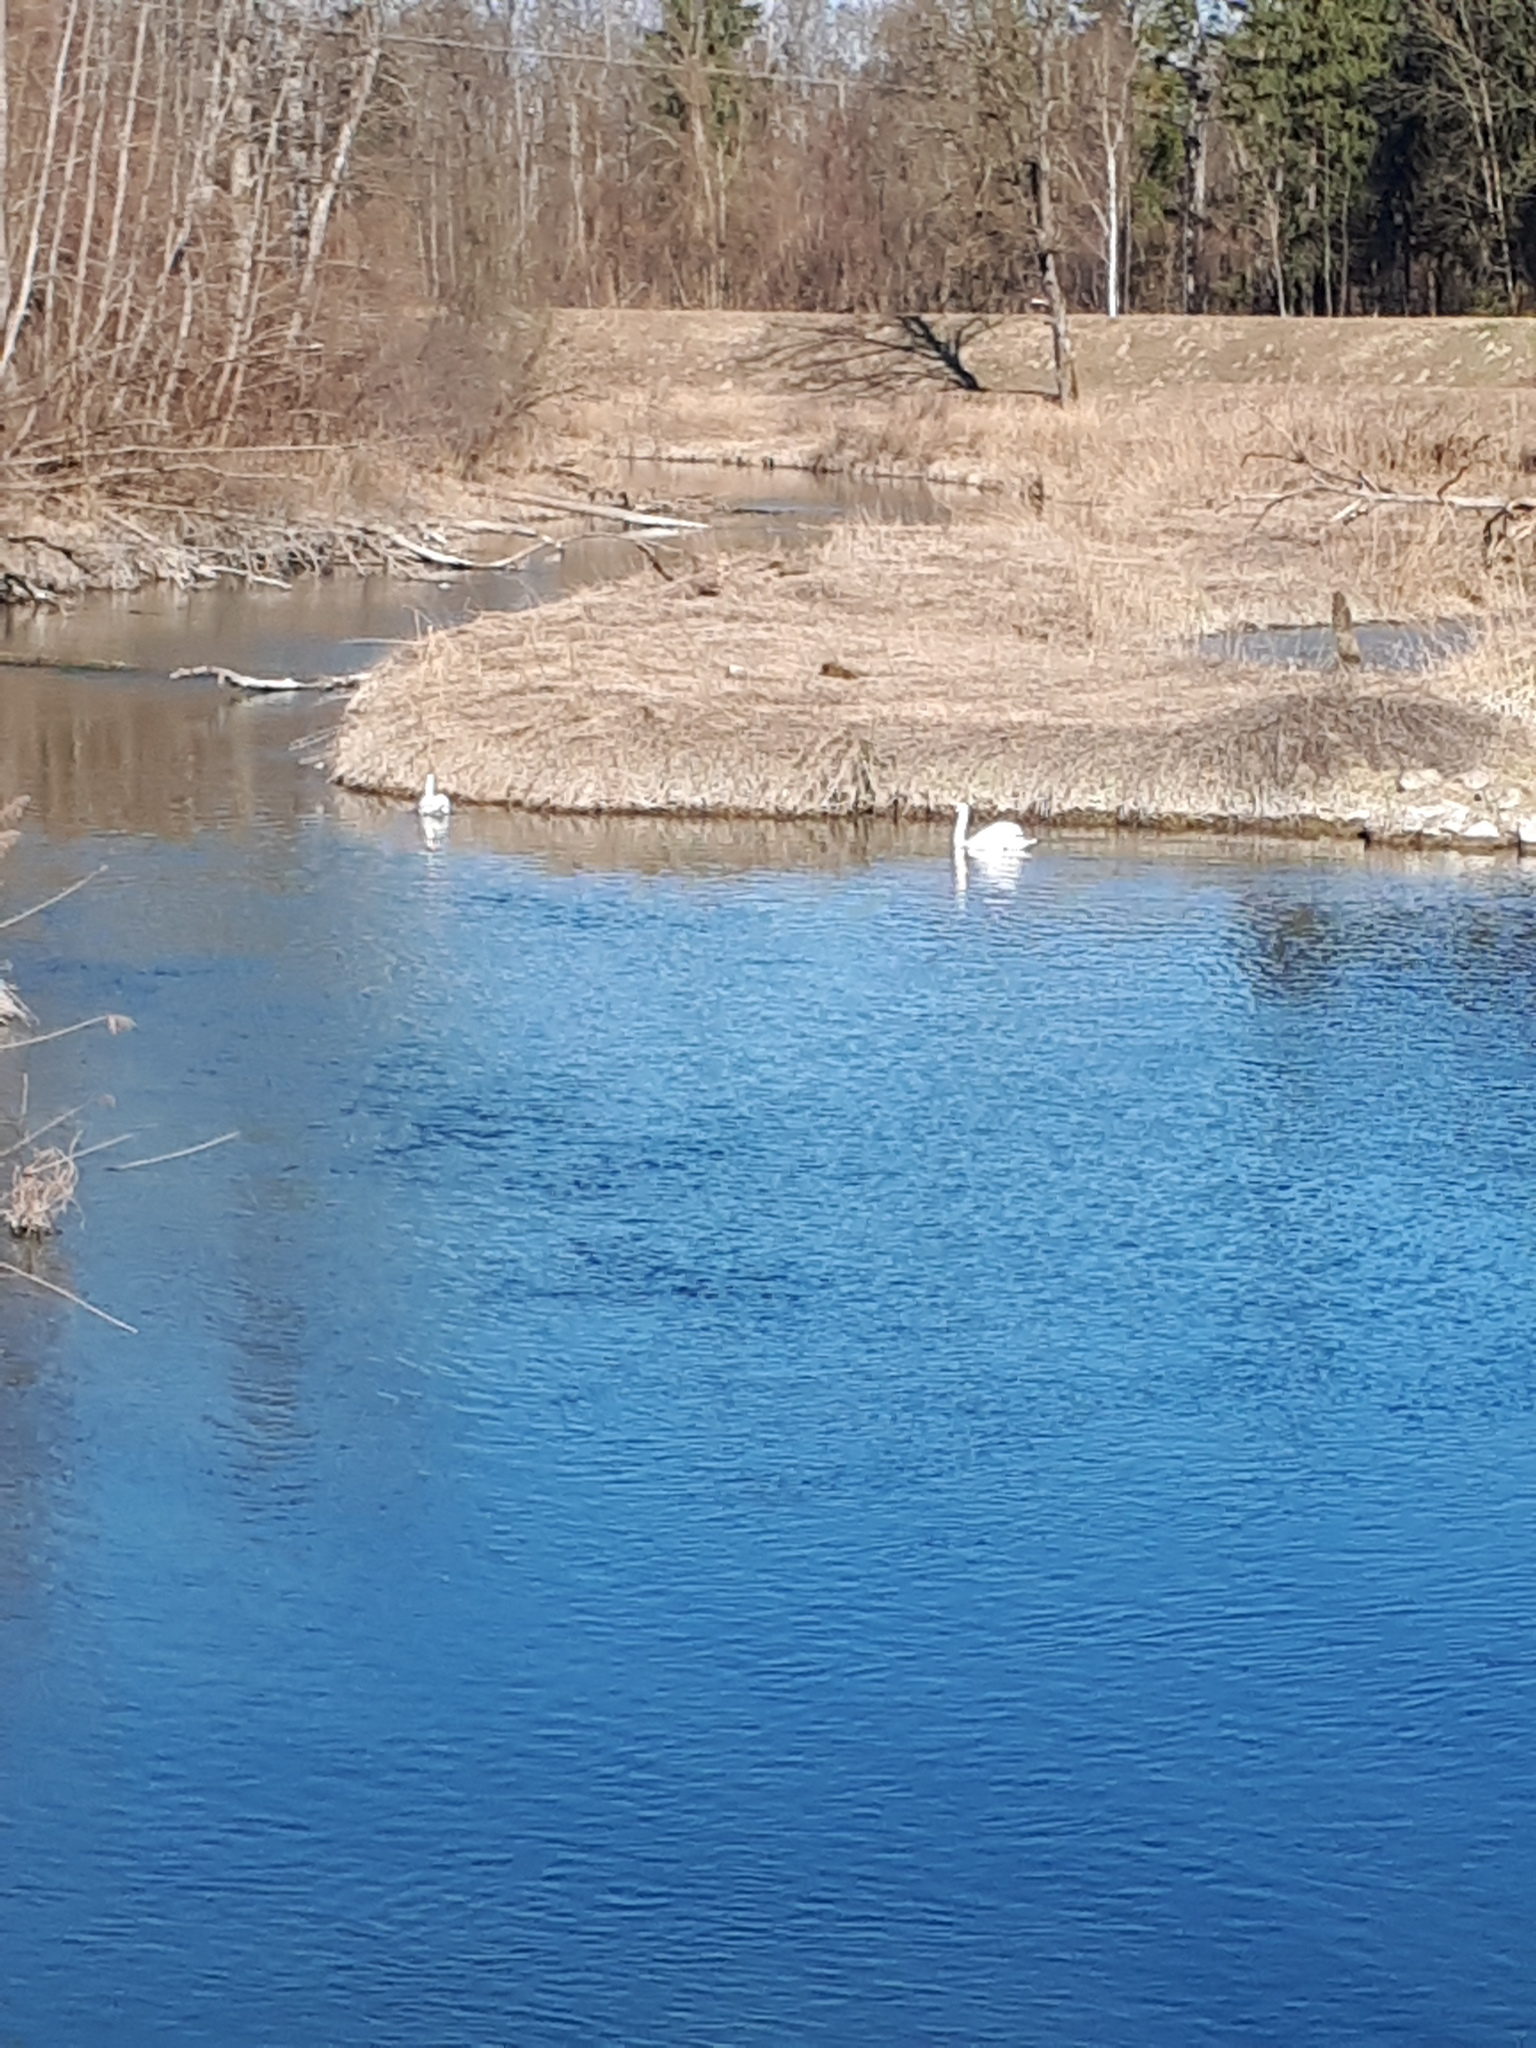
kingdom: Animalia
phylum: Chordata
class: Aves
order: Anseriformes
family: Anatidae
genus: Cygnus
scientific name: Cygnus olor
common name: Mute swan
